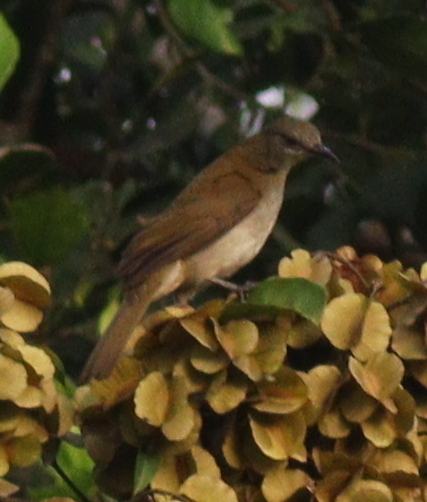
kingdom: Animalia
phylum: Chordata
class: Aves
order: Passeriformes
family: Pycnonotidae
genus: Stelgidillas
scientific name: Stelgidillas gracilirostris
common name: Slender-billed greenbul
